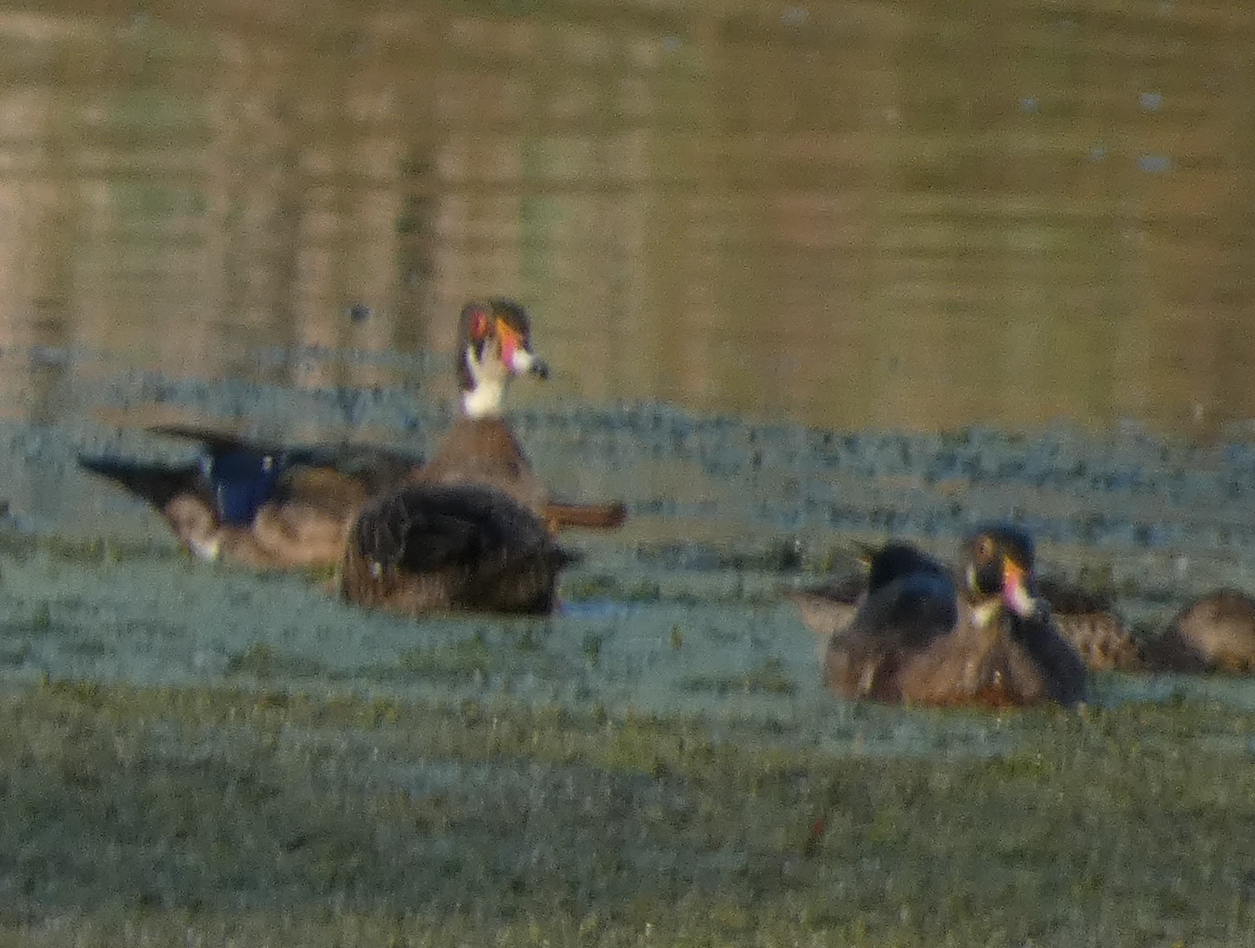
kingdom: Animalia
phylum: Chordata
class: Aves
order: Anseriformes
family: Anatidae
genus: Aix
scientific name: Aix sponsa
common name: Wood duck
